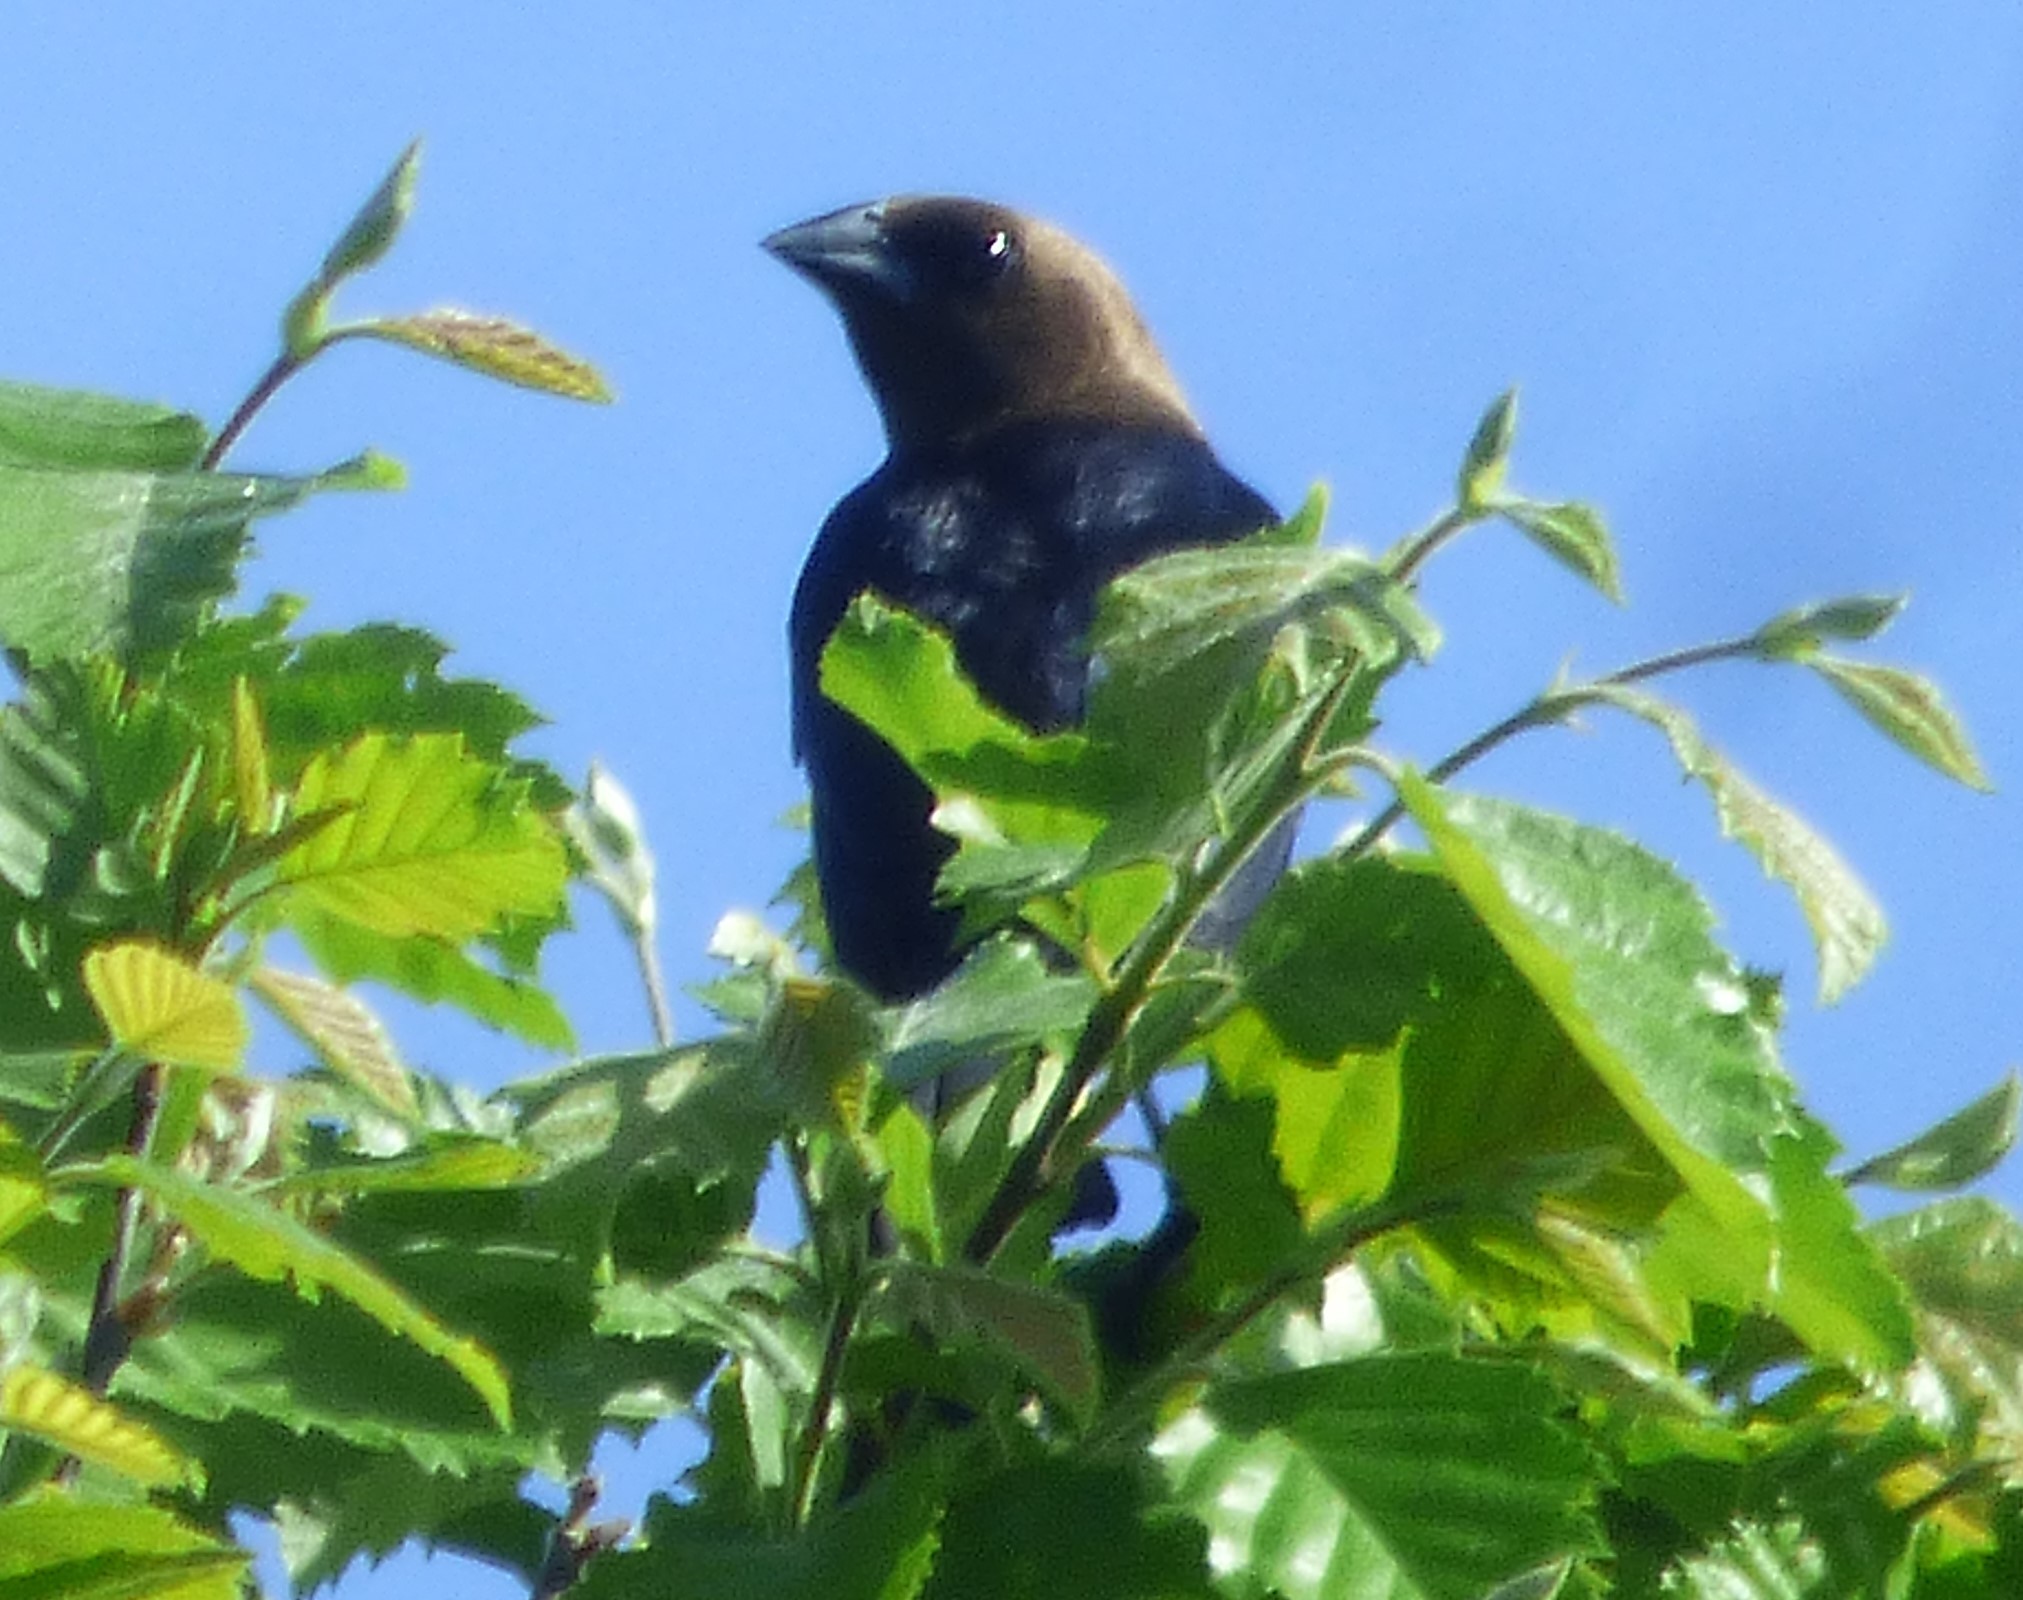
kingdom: Animalia
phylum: Chordata
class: Aves
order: Passeriformes
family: Icteridae
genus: Molothrus
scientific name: Molothrus ater
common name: Brown-headed cowbird
